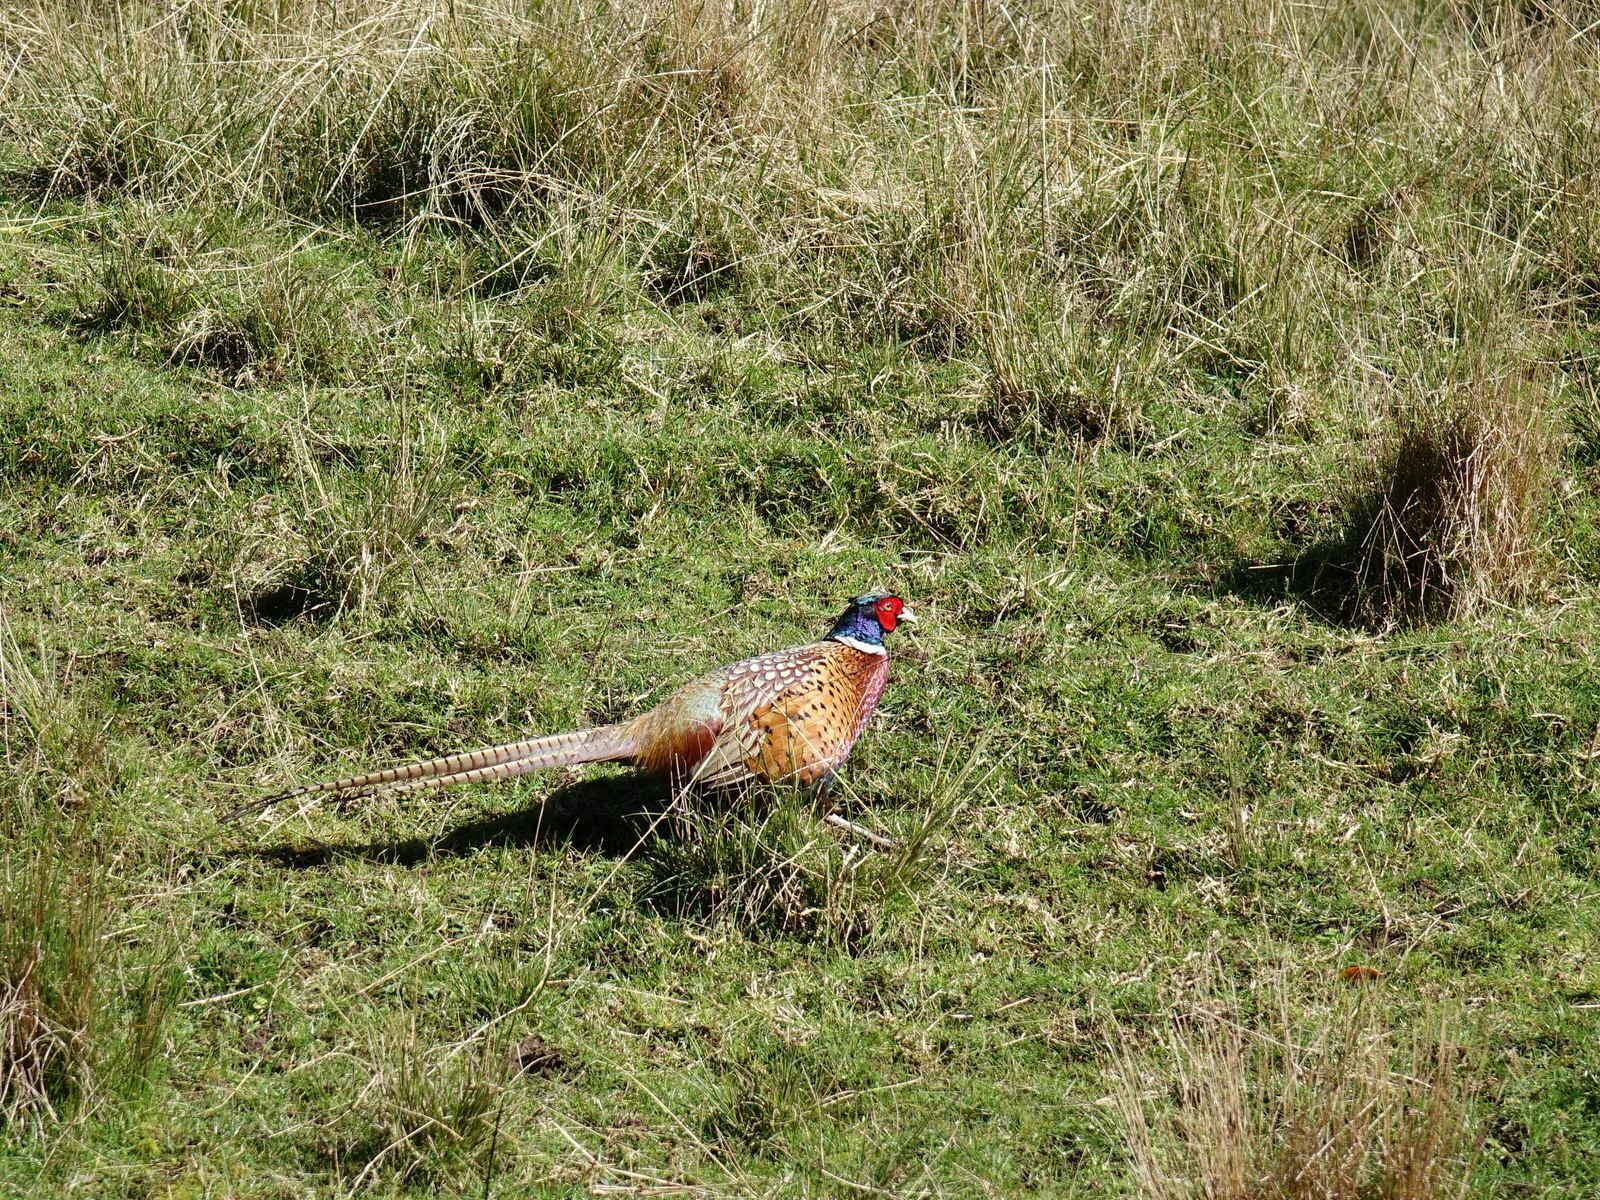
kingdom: Animalia
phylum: Chordata
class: Aves
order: Galliformes
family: Phasianidae
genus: Phasianus
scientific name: Phasianus colchicus
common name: Common pheasant
